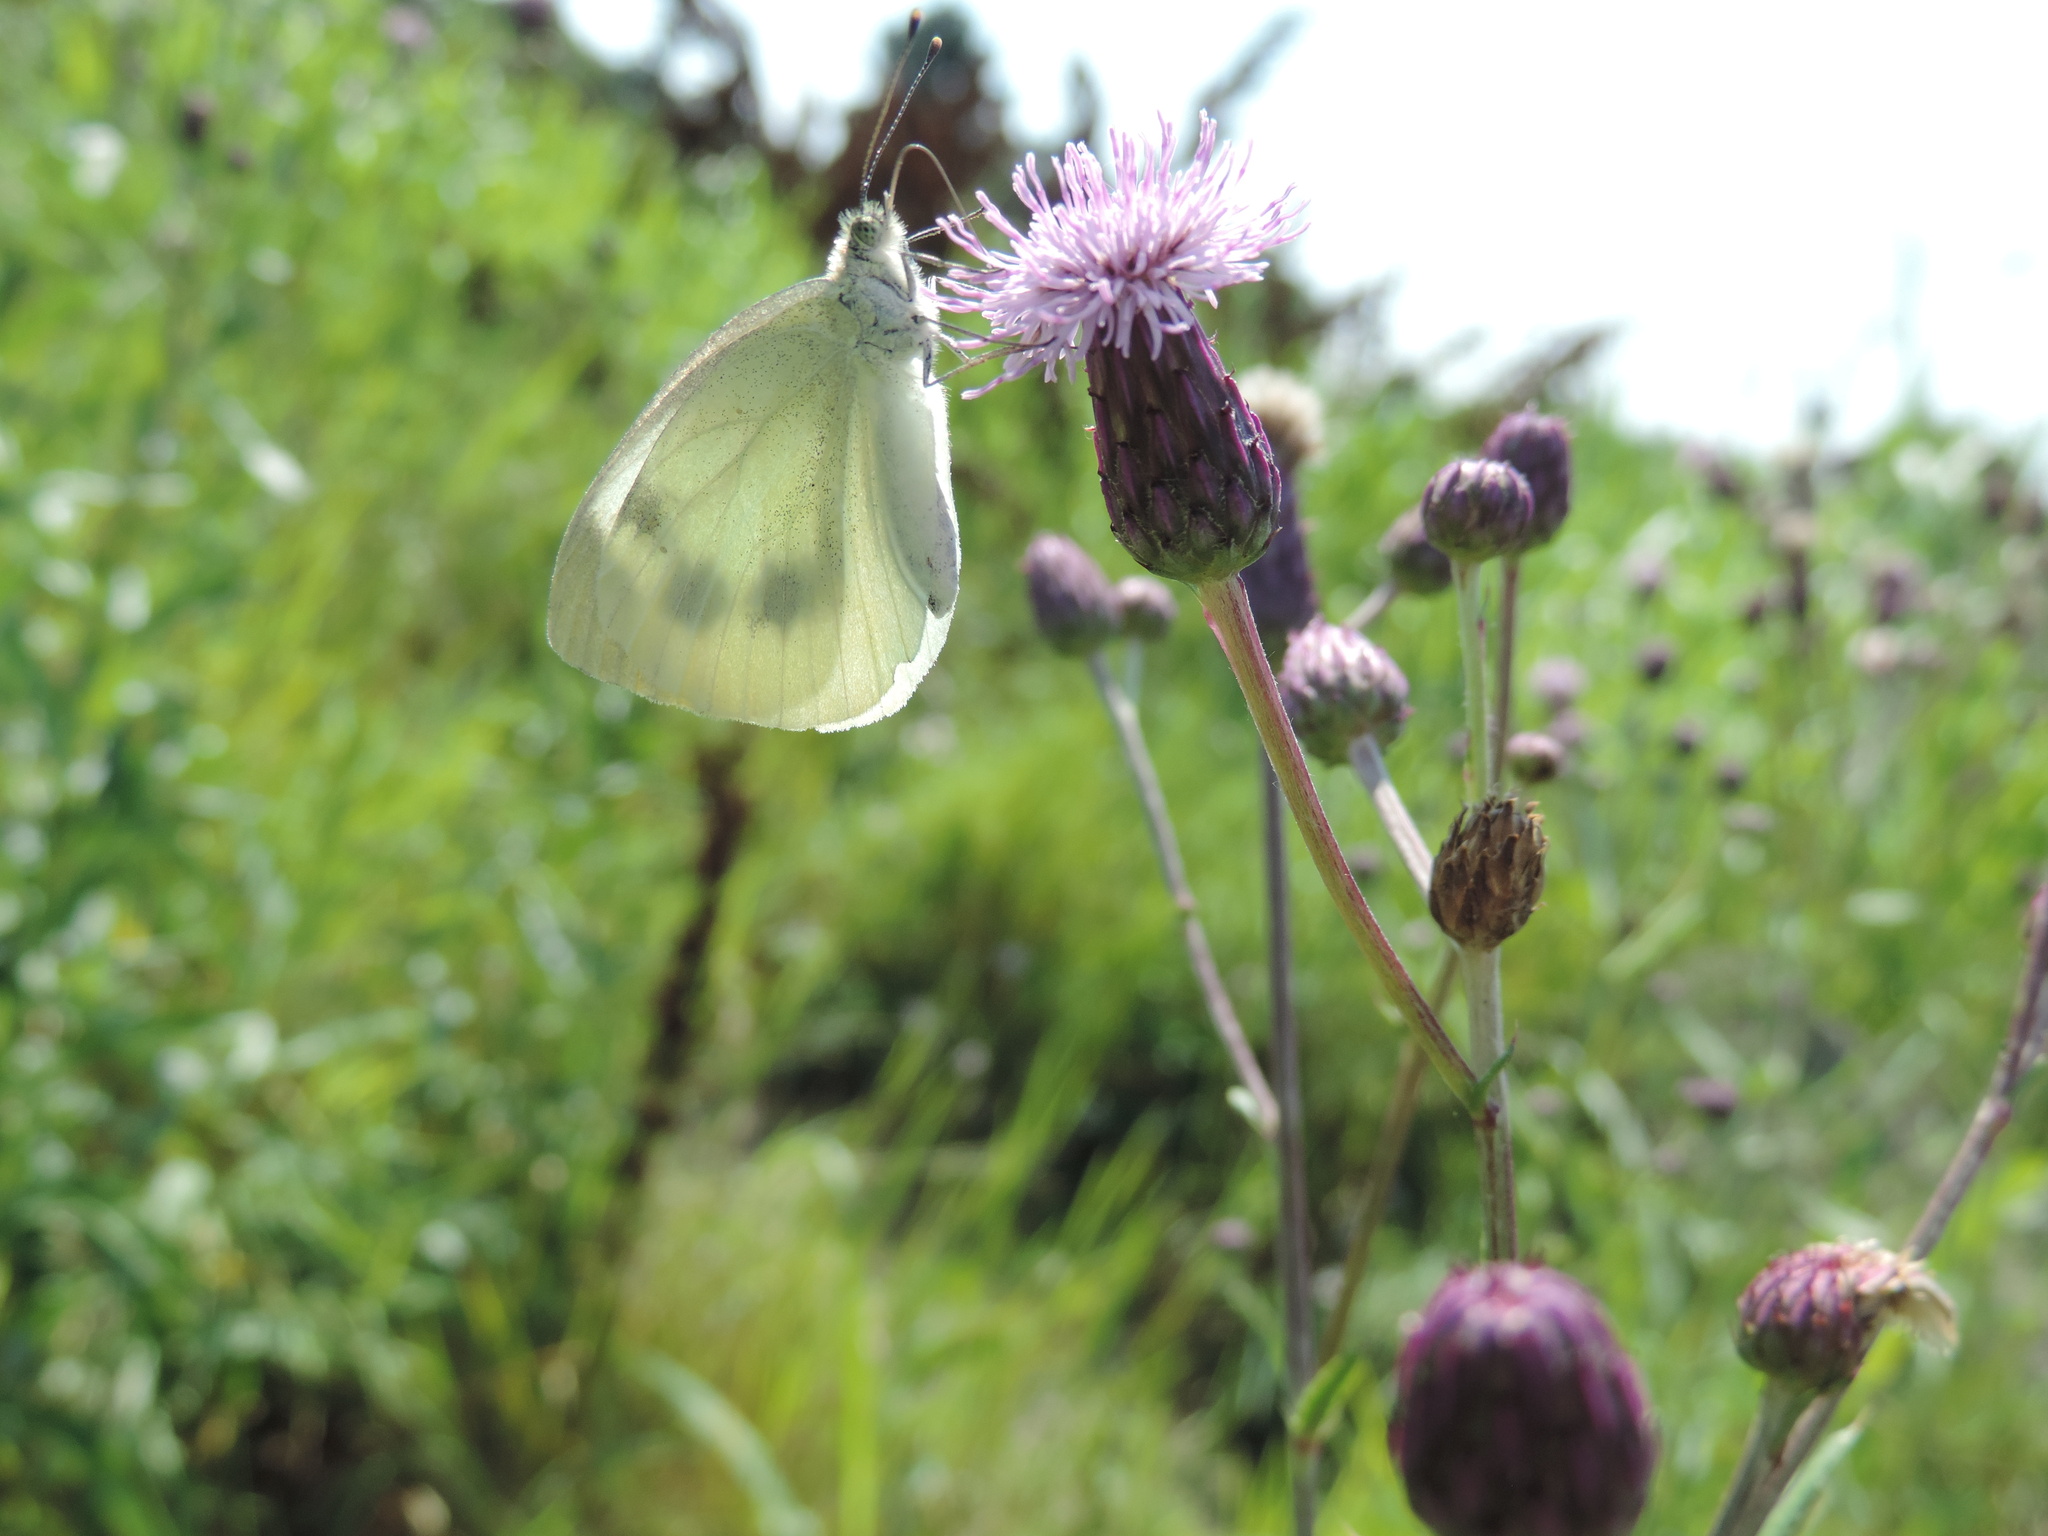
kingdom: Animalia
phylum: Arthropoda
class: Insecta
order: Lepidoptera
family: Pieridae
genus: Pieris
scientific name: Pieris brassicae
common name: Large white
